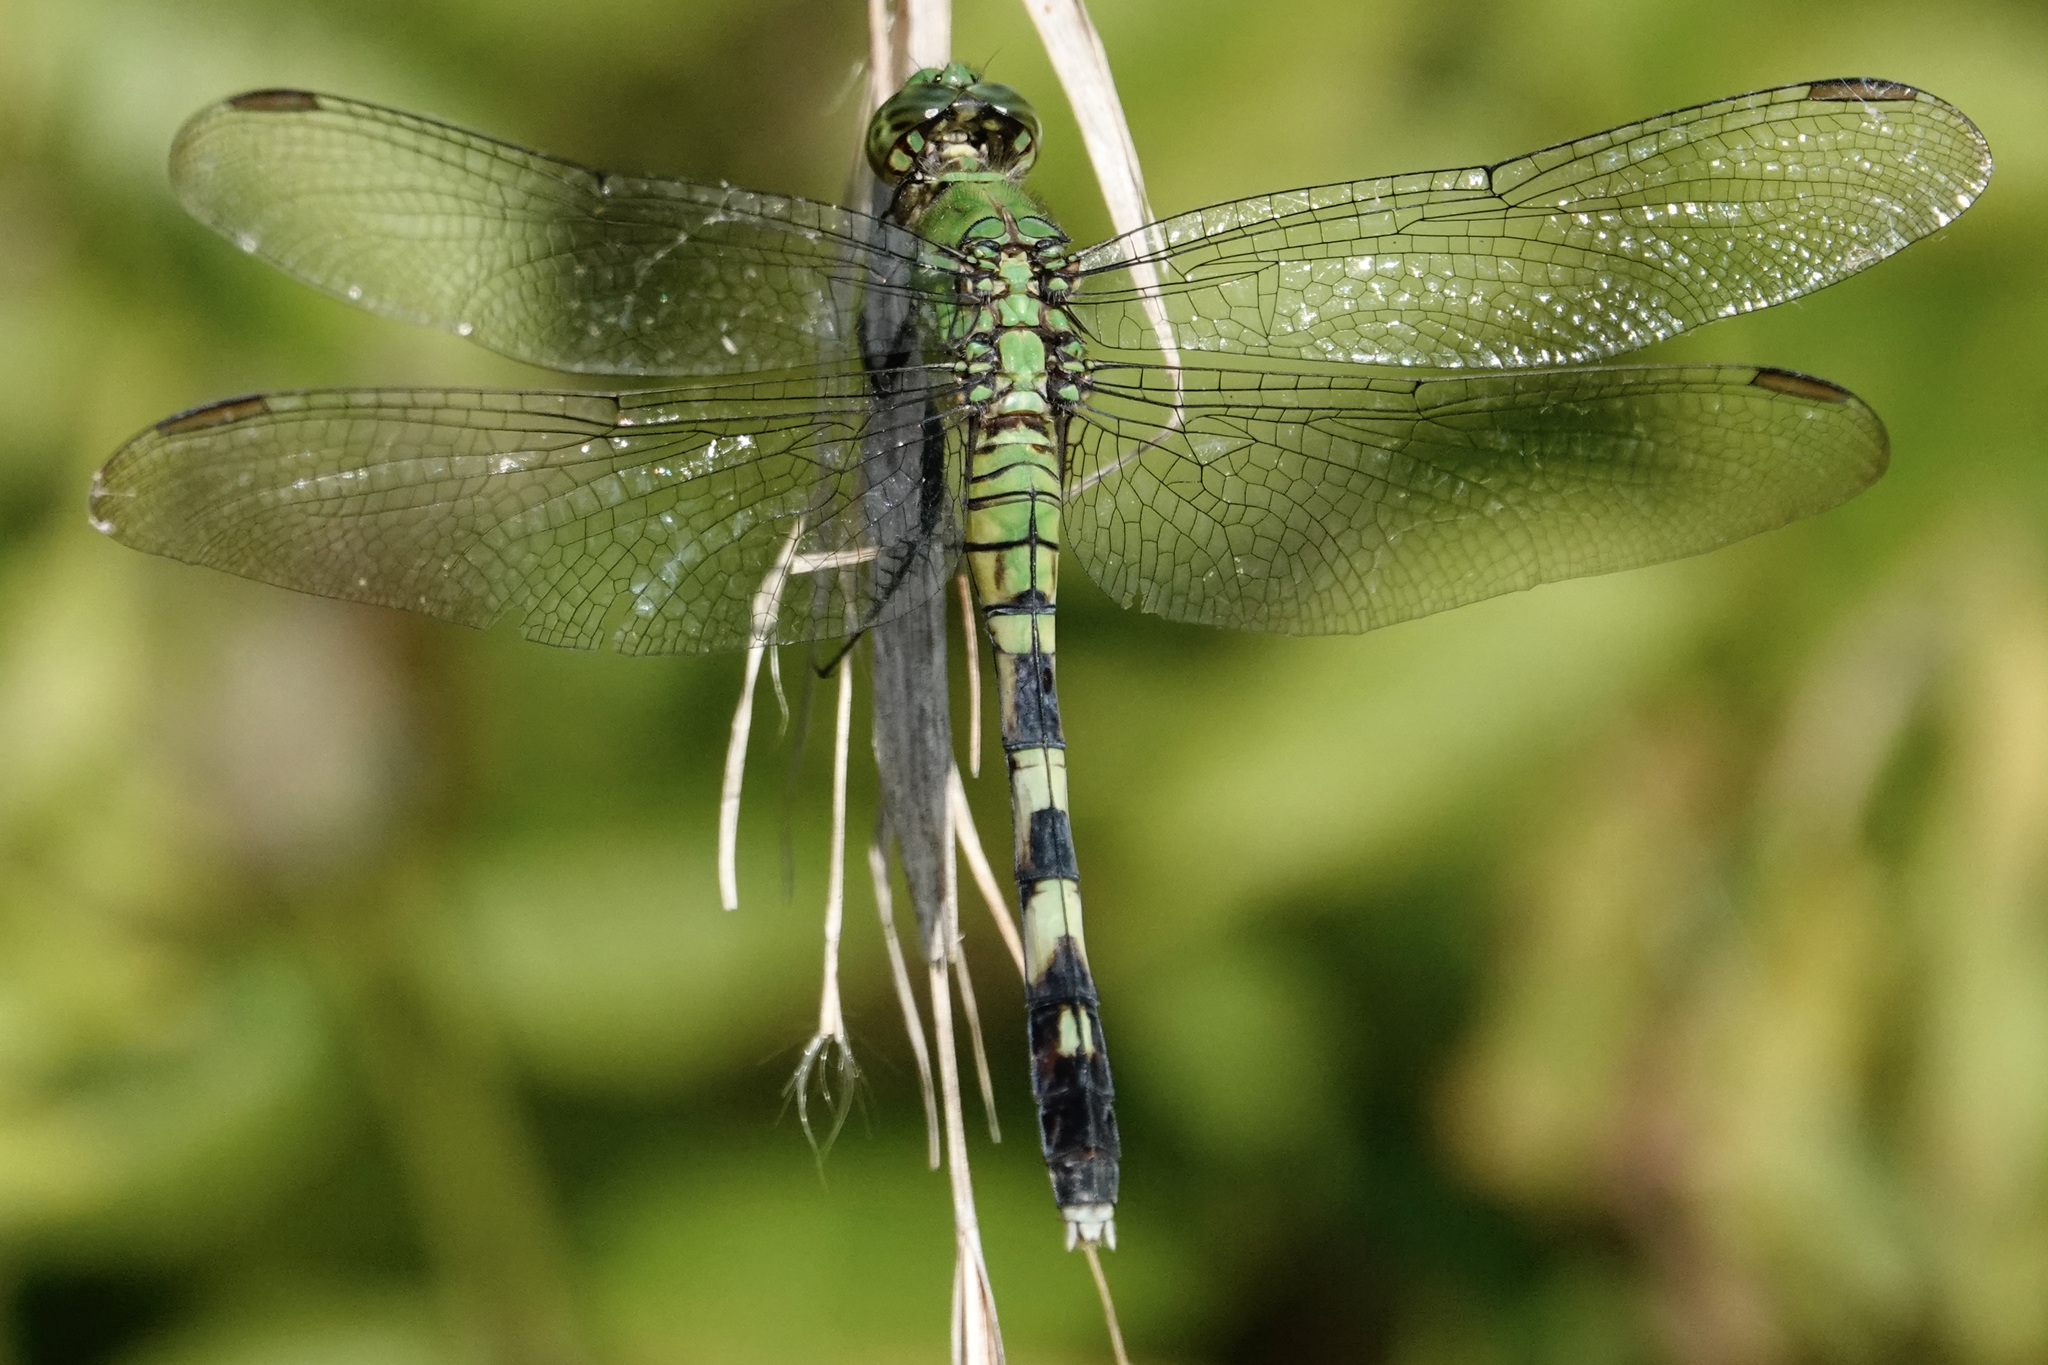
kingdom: Animalia
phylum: Arthropoda
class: Insecta
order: Odonata
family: Libellulidae
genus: Erythemis
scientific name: Erythemis simplicicollis
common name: Eastern pondhawk
